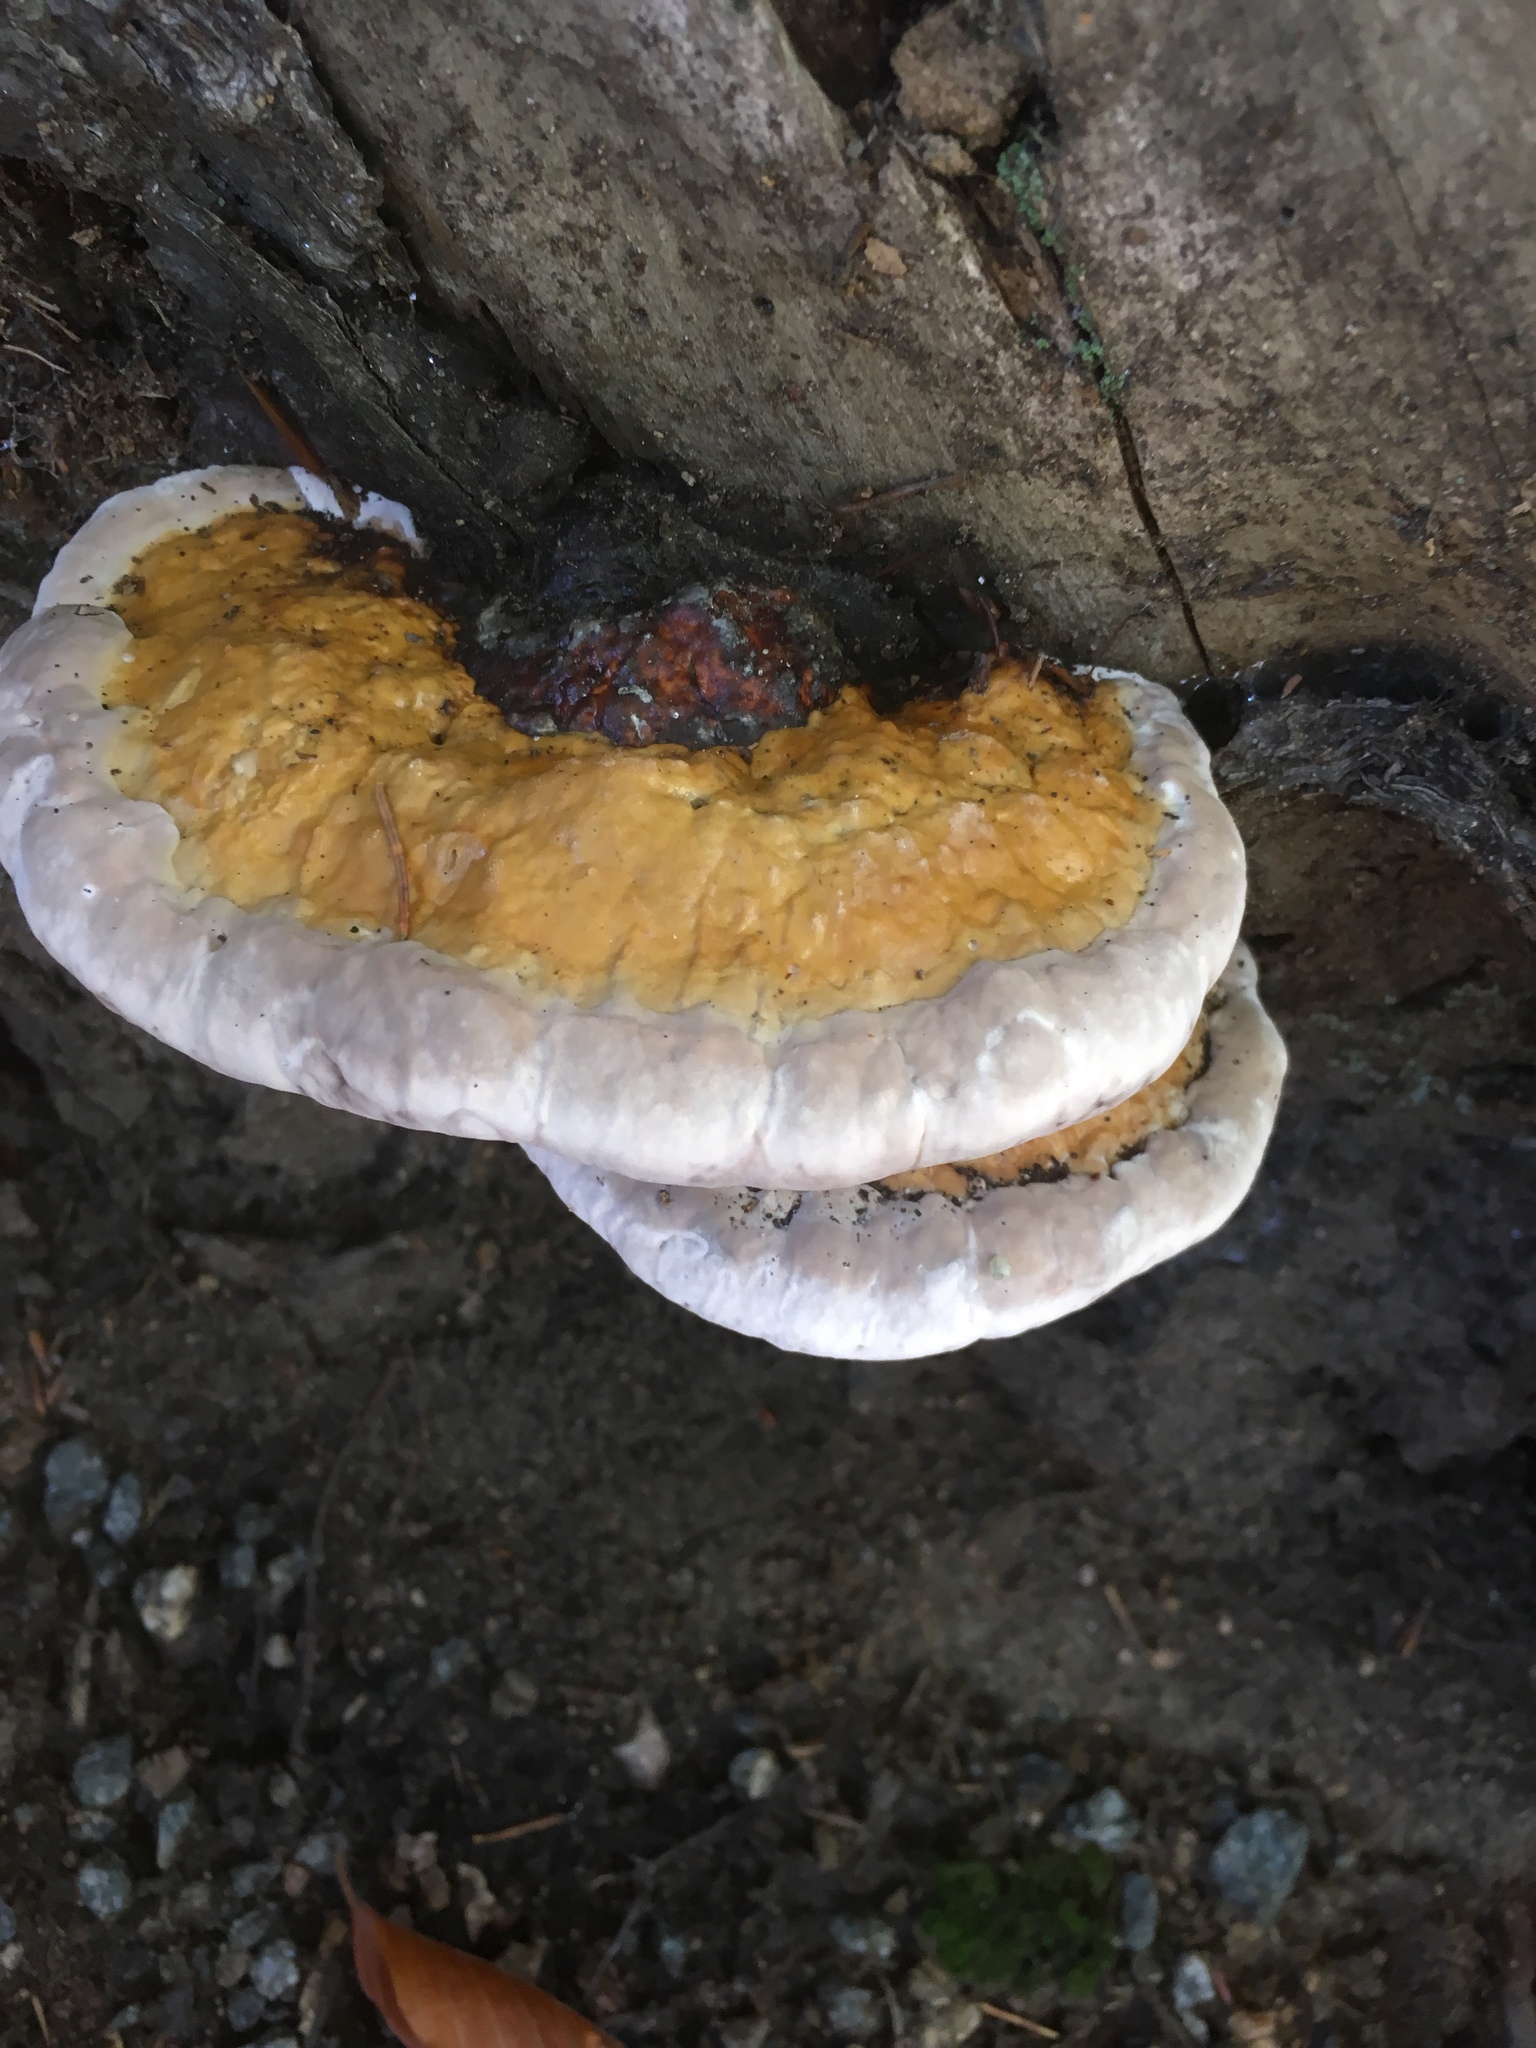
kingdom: Fungi
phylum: Basidiomycota
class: Agaricomycetes
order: Polyporales
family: Fomitopsidaceae
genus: Fomitopsis
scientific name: Fomitopsis pinicola
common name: Red-belted bracket
